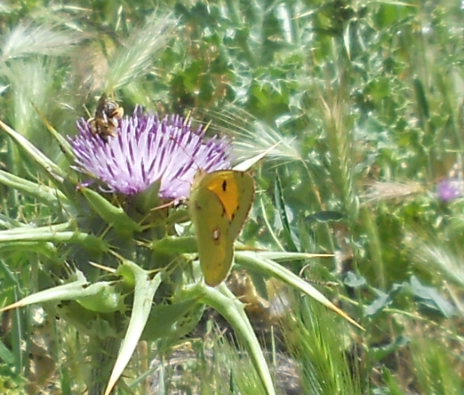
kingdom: Animalia
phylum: Arthropoda
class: Insecta
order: Lepidoptera
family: Pieridae
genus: Colias
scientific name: Colias croceus
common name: Clouded yellow
